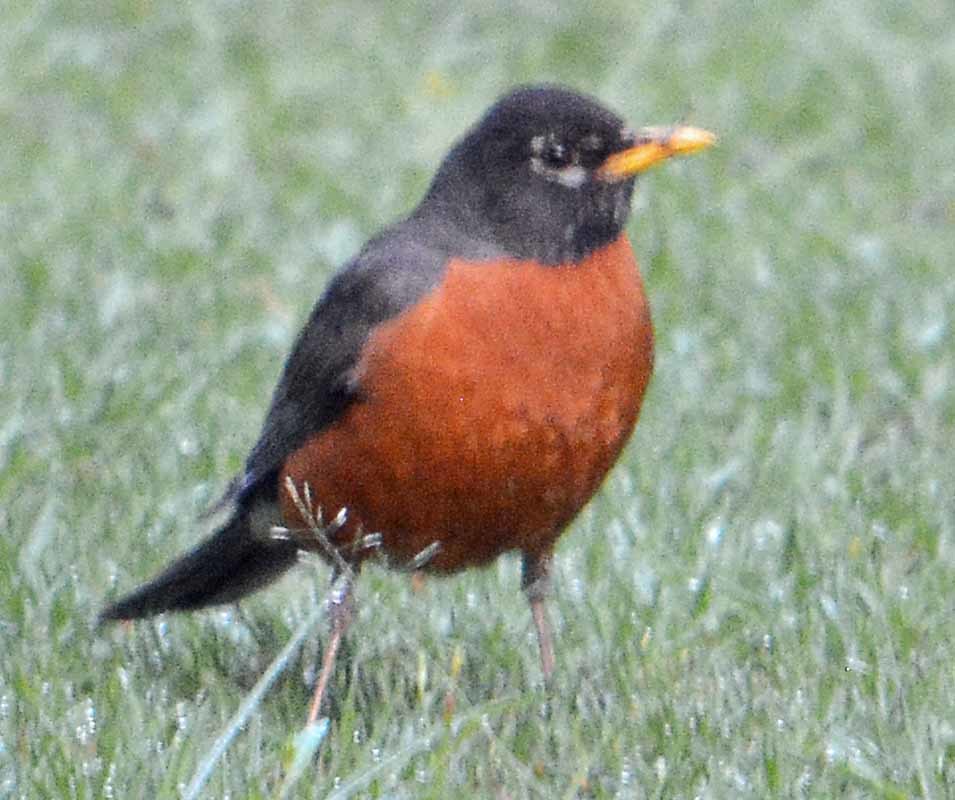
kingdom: Animalia
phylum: Chordata
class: Aves
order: Passeriformes
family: Turdidae
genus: Turdus
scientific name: Turdus migratorius
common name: American robin
